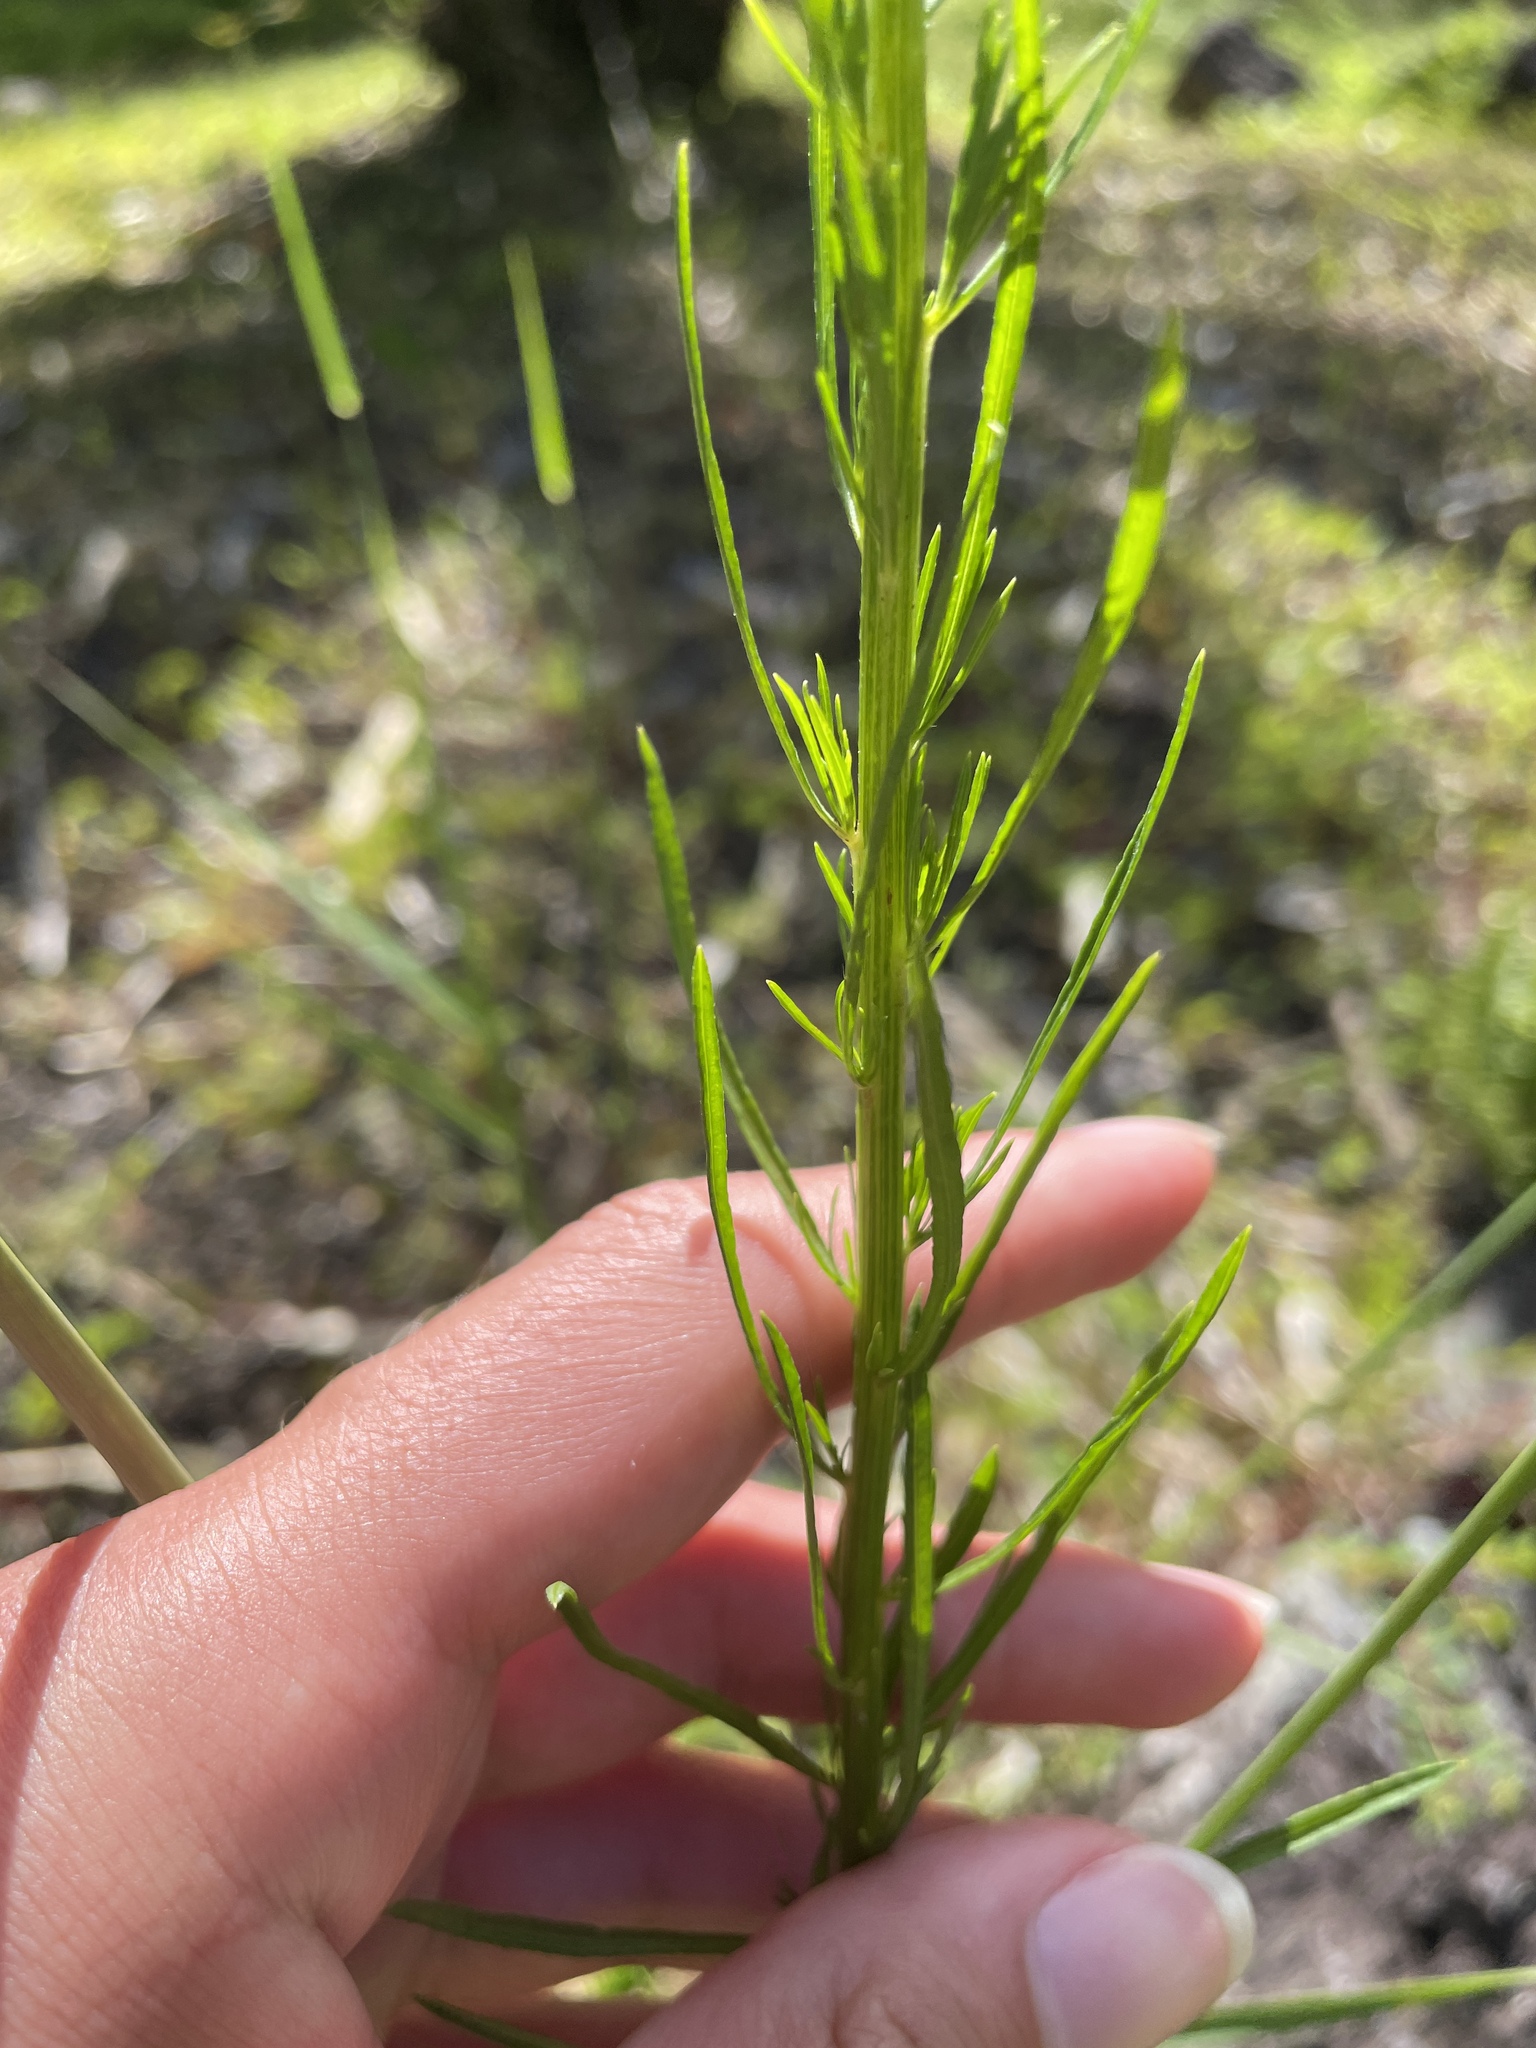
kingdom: Plantae
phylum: Tracheophyta
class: Magnoliopsida
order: Asterales
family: Asteraceae
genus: Erigeron
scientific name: Erigeron canadensis
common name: Canadian fleabane
